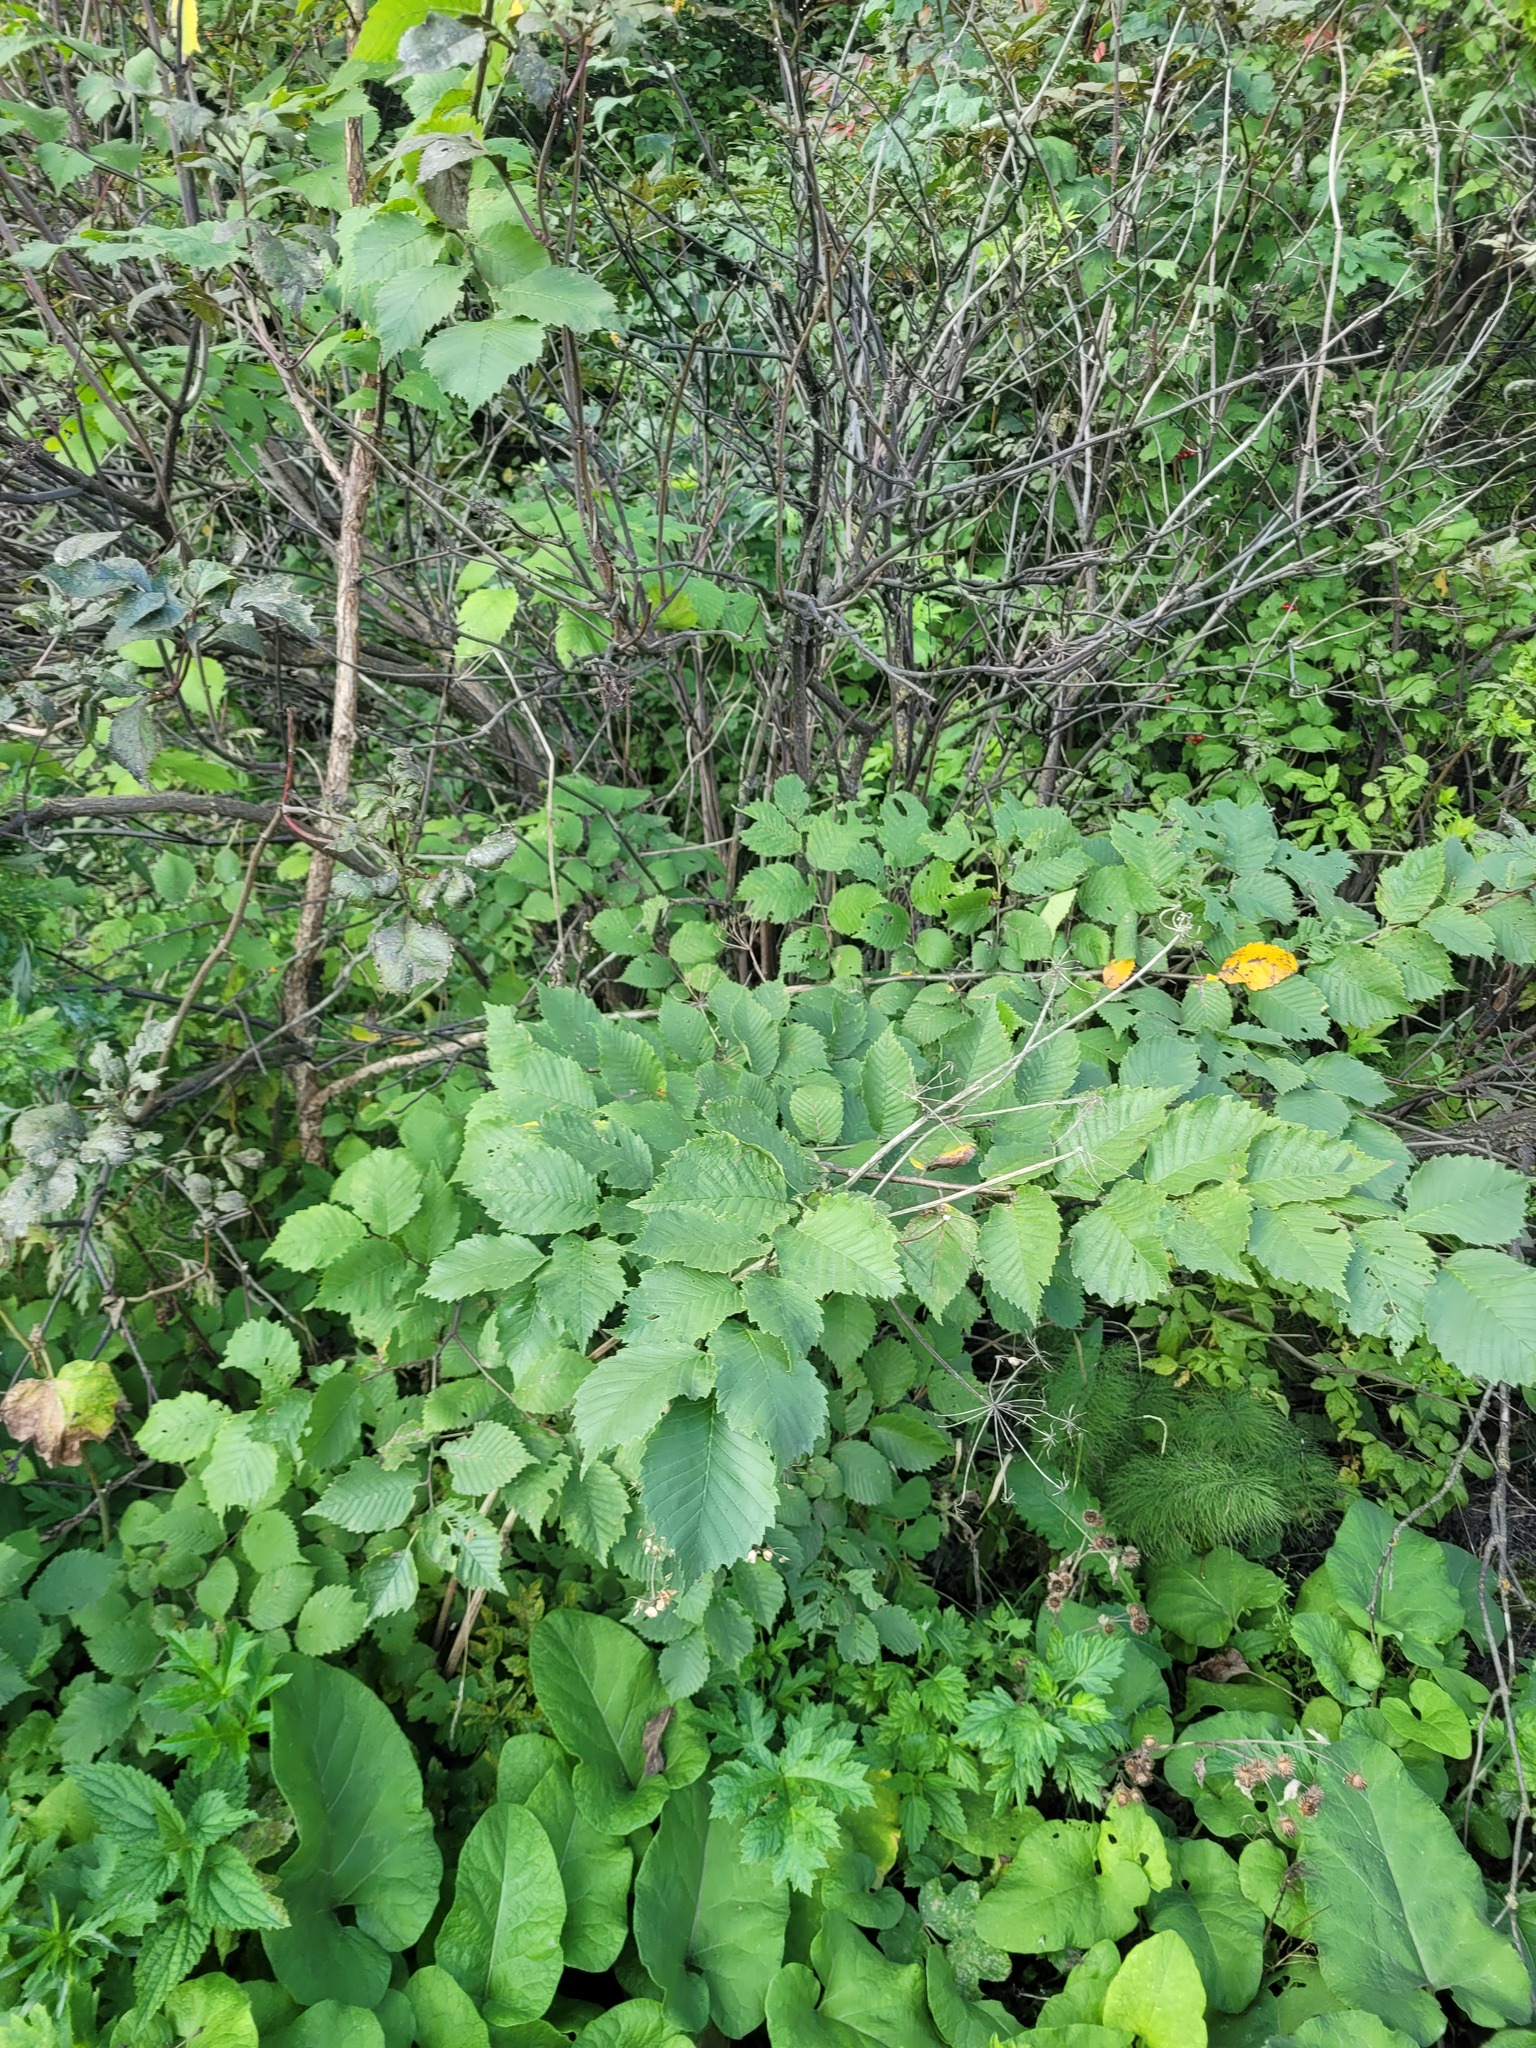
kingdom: Plantae
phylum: Tracheophyta
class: Magnoliopsida
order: Rosales
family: Ulmaceae
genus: Ulmus
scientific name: Ulmus laevis
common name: European white-elm
